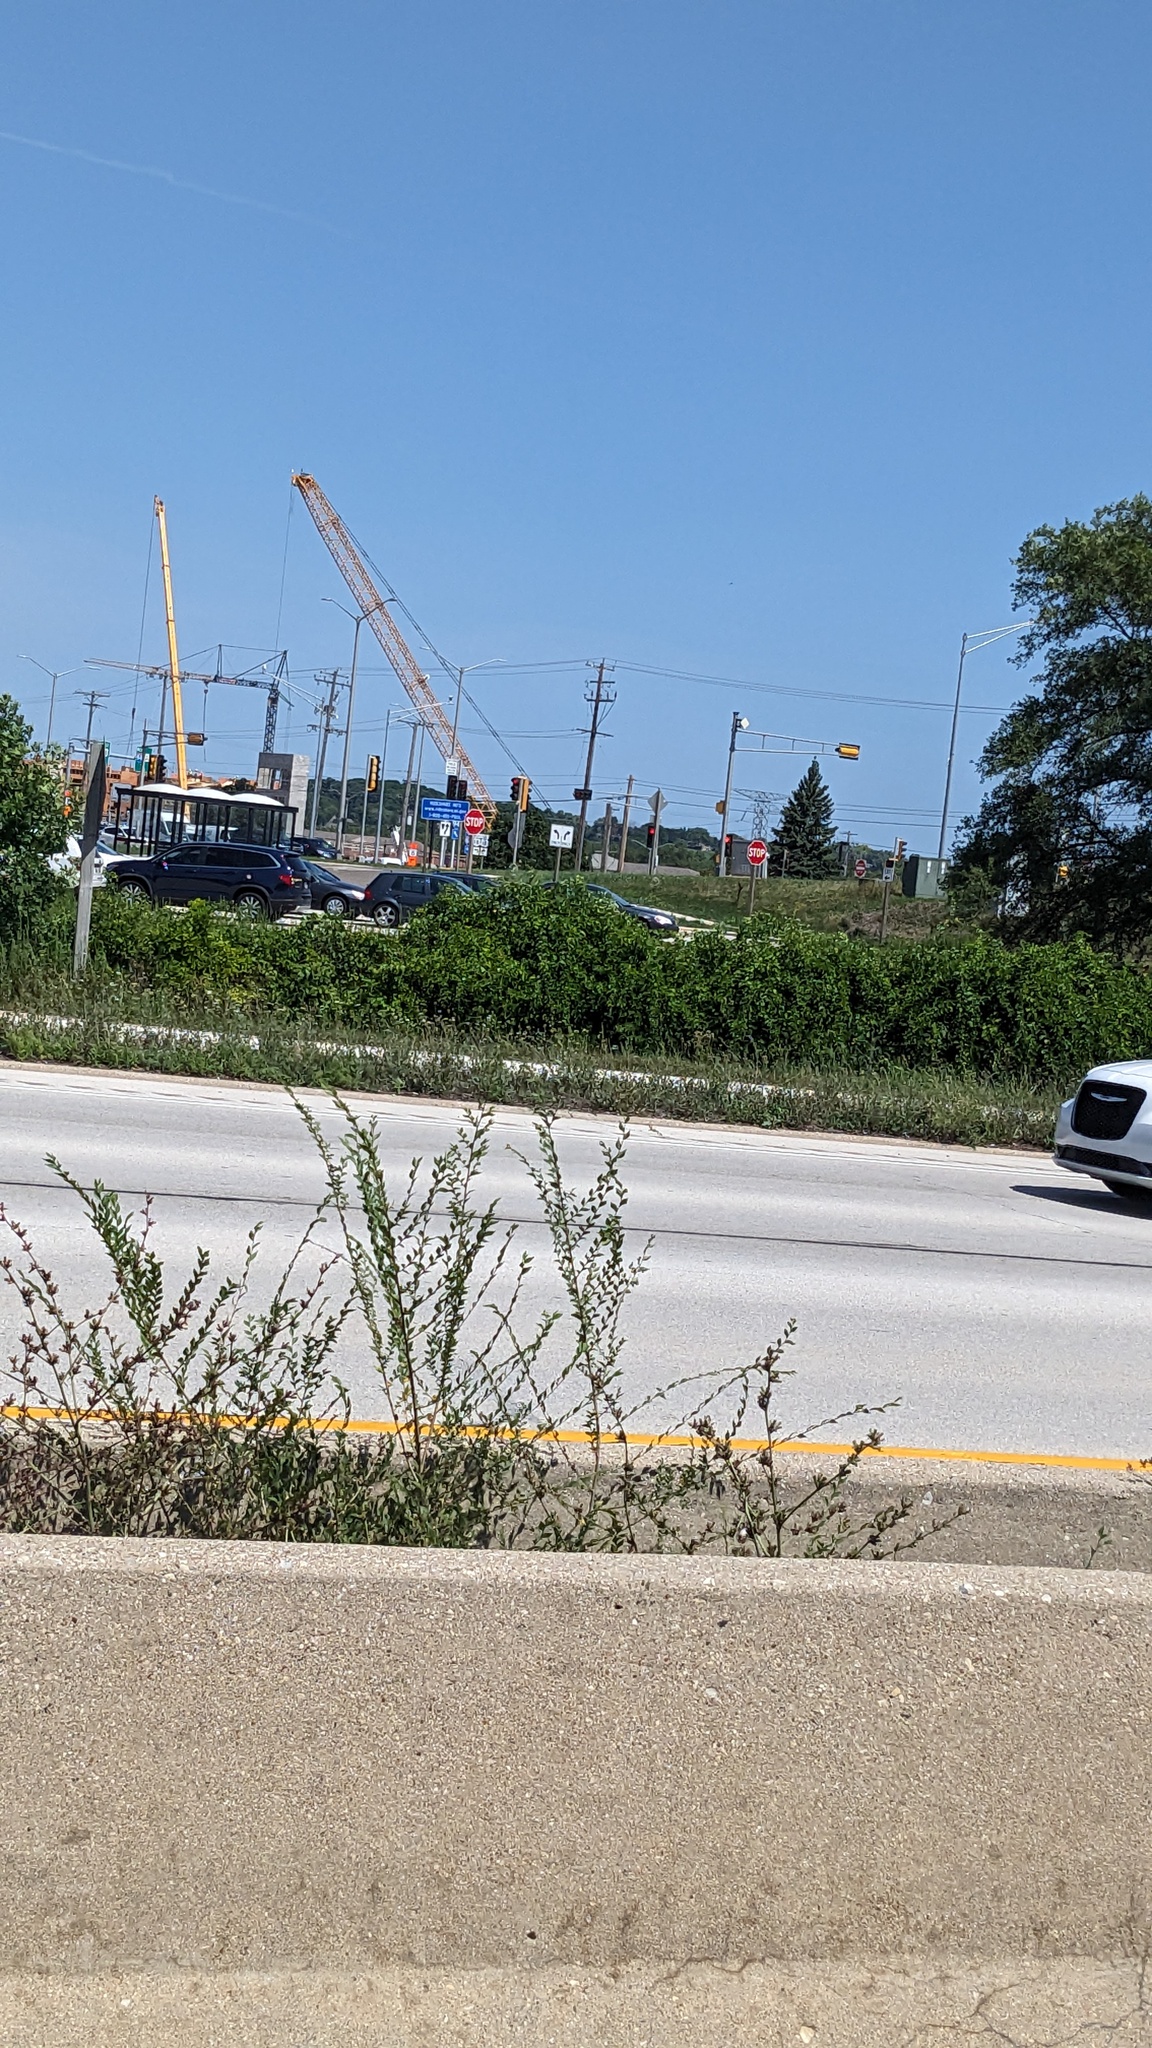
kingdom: Plantae
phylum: Tracheophyta
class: Magnoliopsida
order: Rosales
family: Ulmaceae
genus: Ulmus
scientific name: Ulmus pumila
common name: Siberian elm
